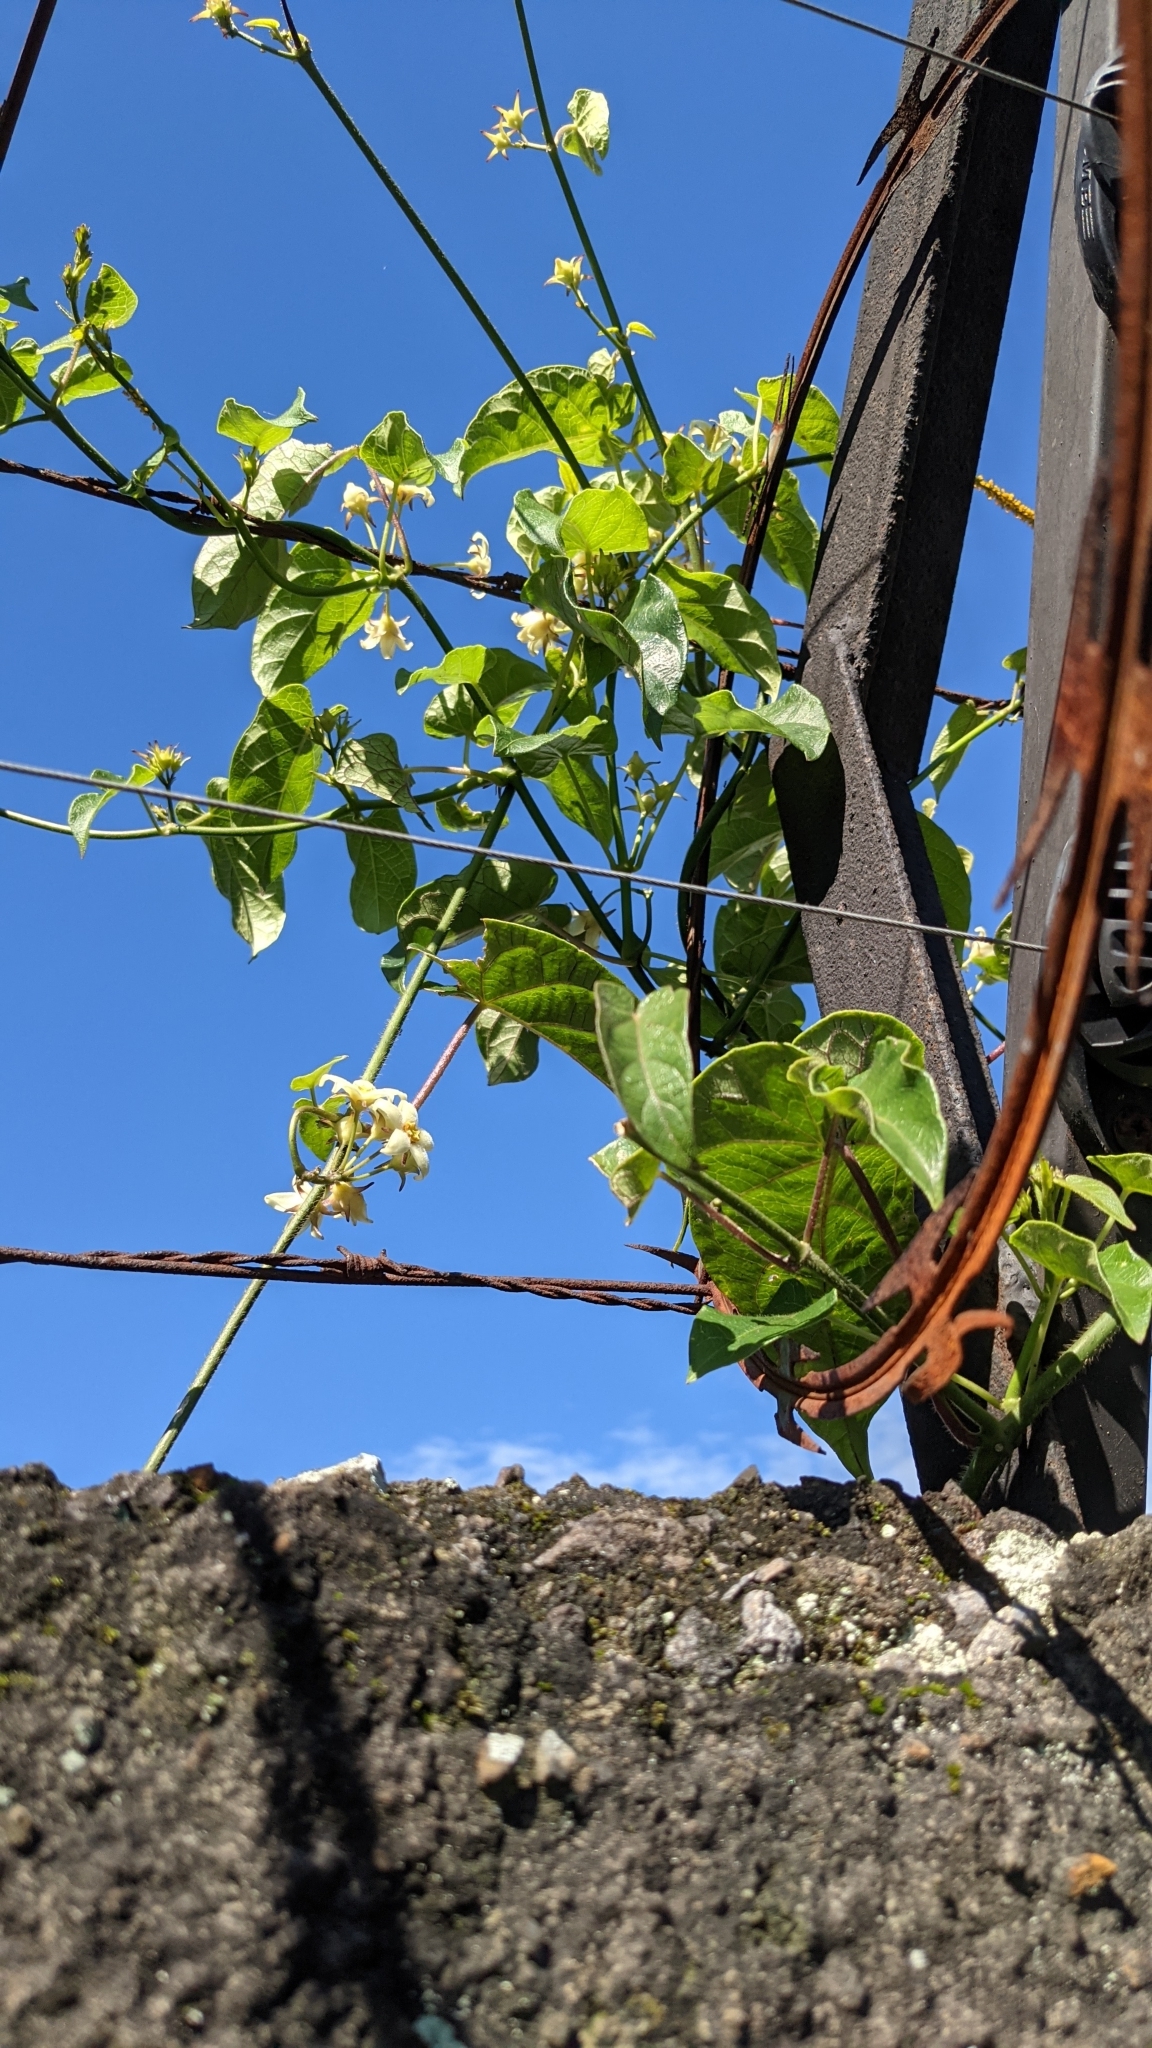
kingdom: Plantae
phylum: Tracheophyta
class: Magnoliopsida
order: Gentianales
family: Apocynaceae
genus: Gonolobus
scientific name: Gonolobus edulis
